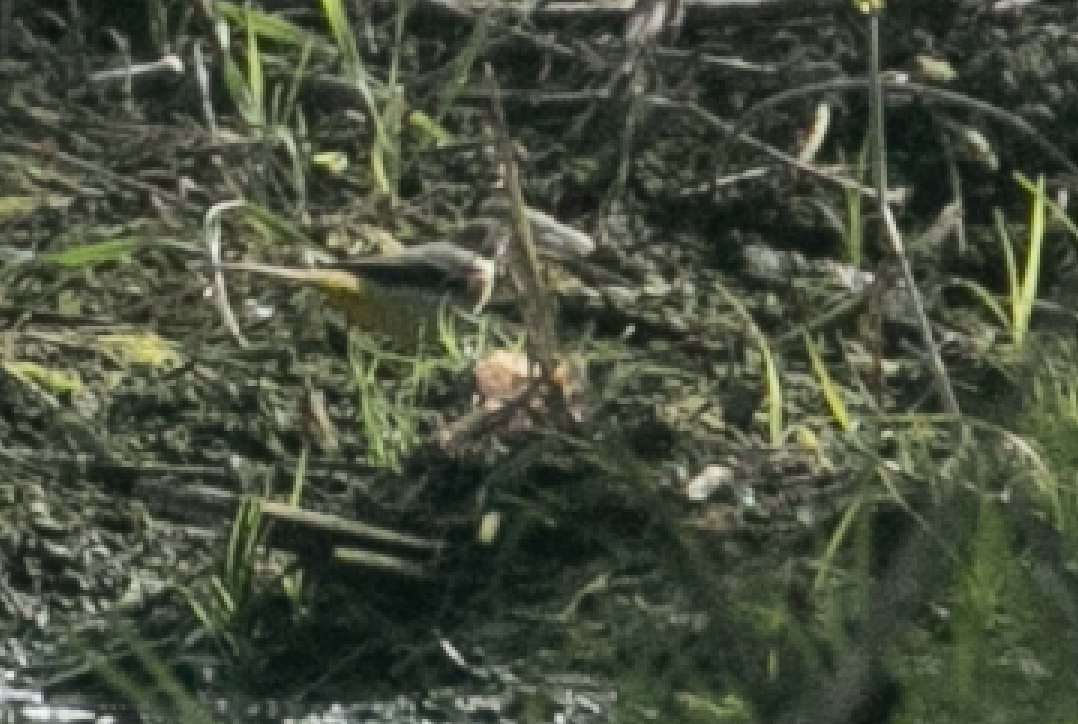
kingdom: Animalia
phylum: Chordata
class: Aves
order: Passeriformes
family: Motacillidae
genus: Motacilla
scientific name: Motacilla cinerea
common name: Grey wagtail
